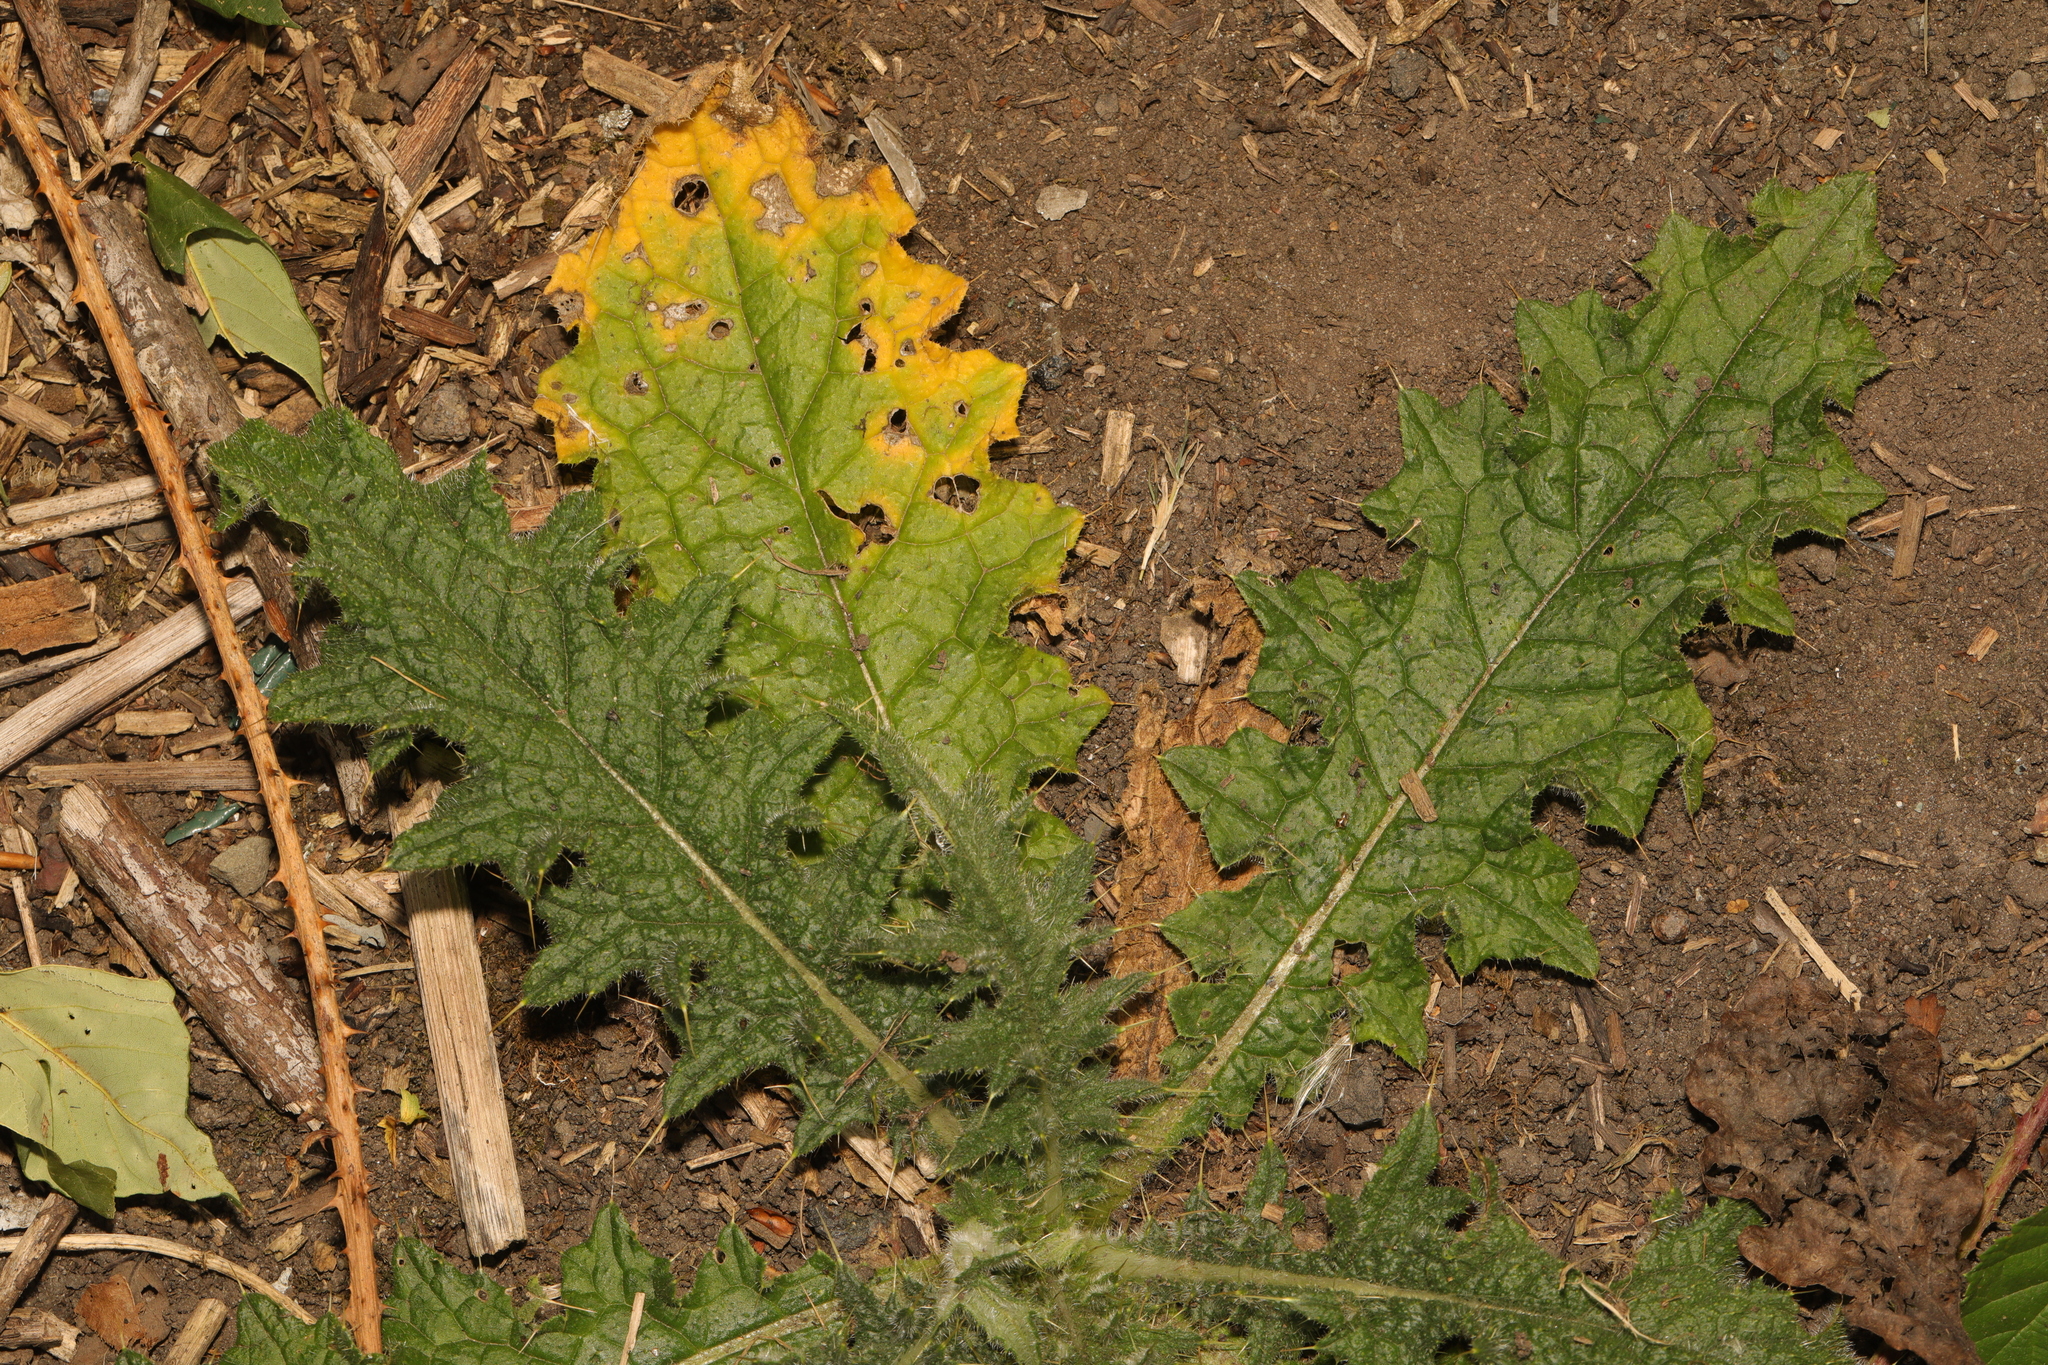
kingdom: Plantae
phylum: Tracheophyta
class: Magnoliopsida
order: Asterales
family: Asteraceae
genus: Cirsium
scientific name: Cirsium vulgare
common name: Bull thistle
